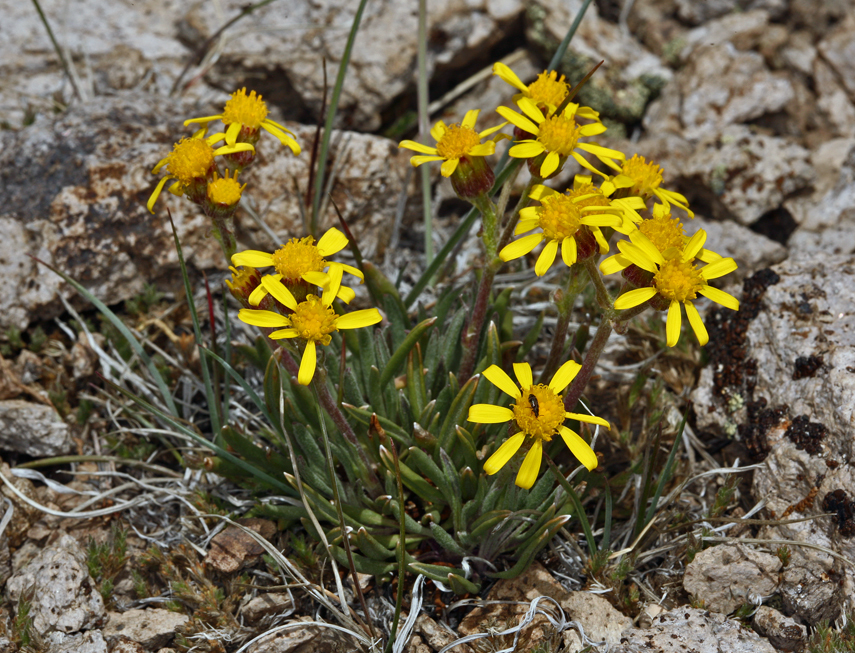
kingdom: Plantae
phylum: Tracheophyta
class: Magnoliopsida
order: Asterales
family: Asteraceae
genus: Packera
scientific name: Packera werneriifolia
